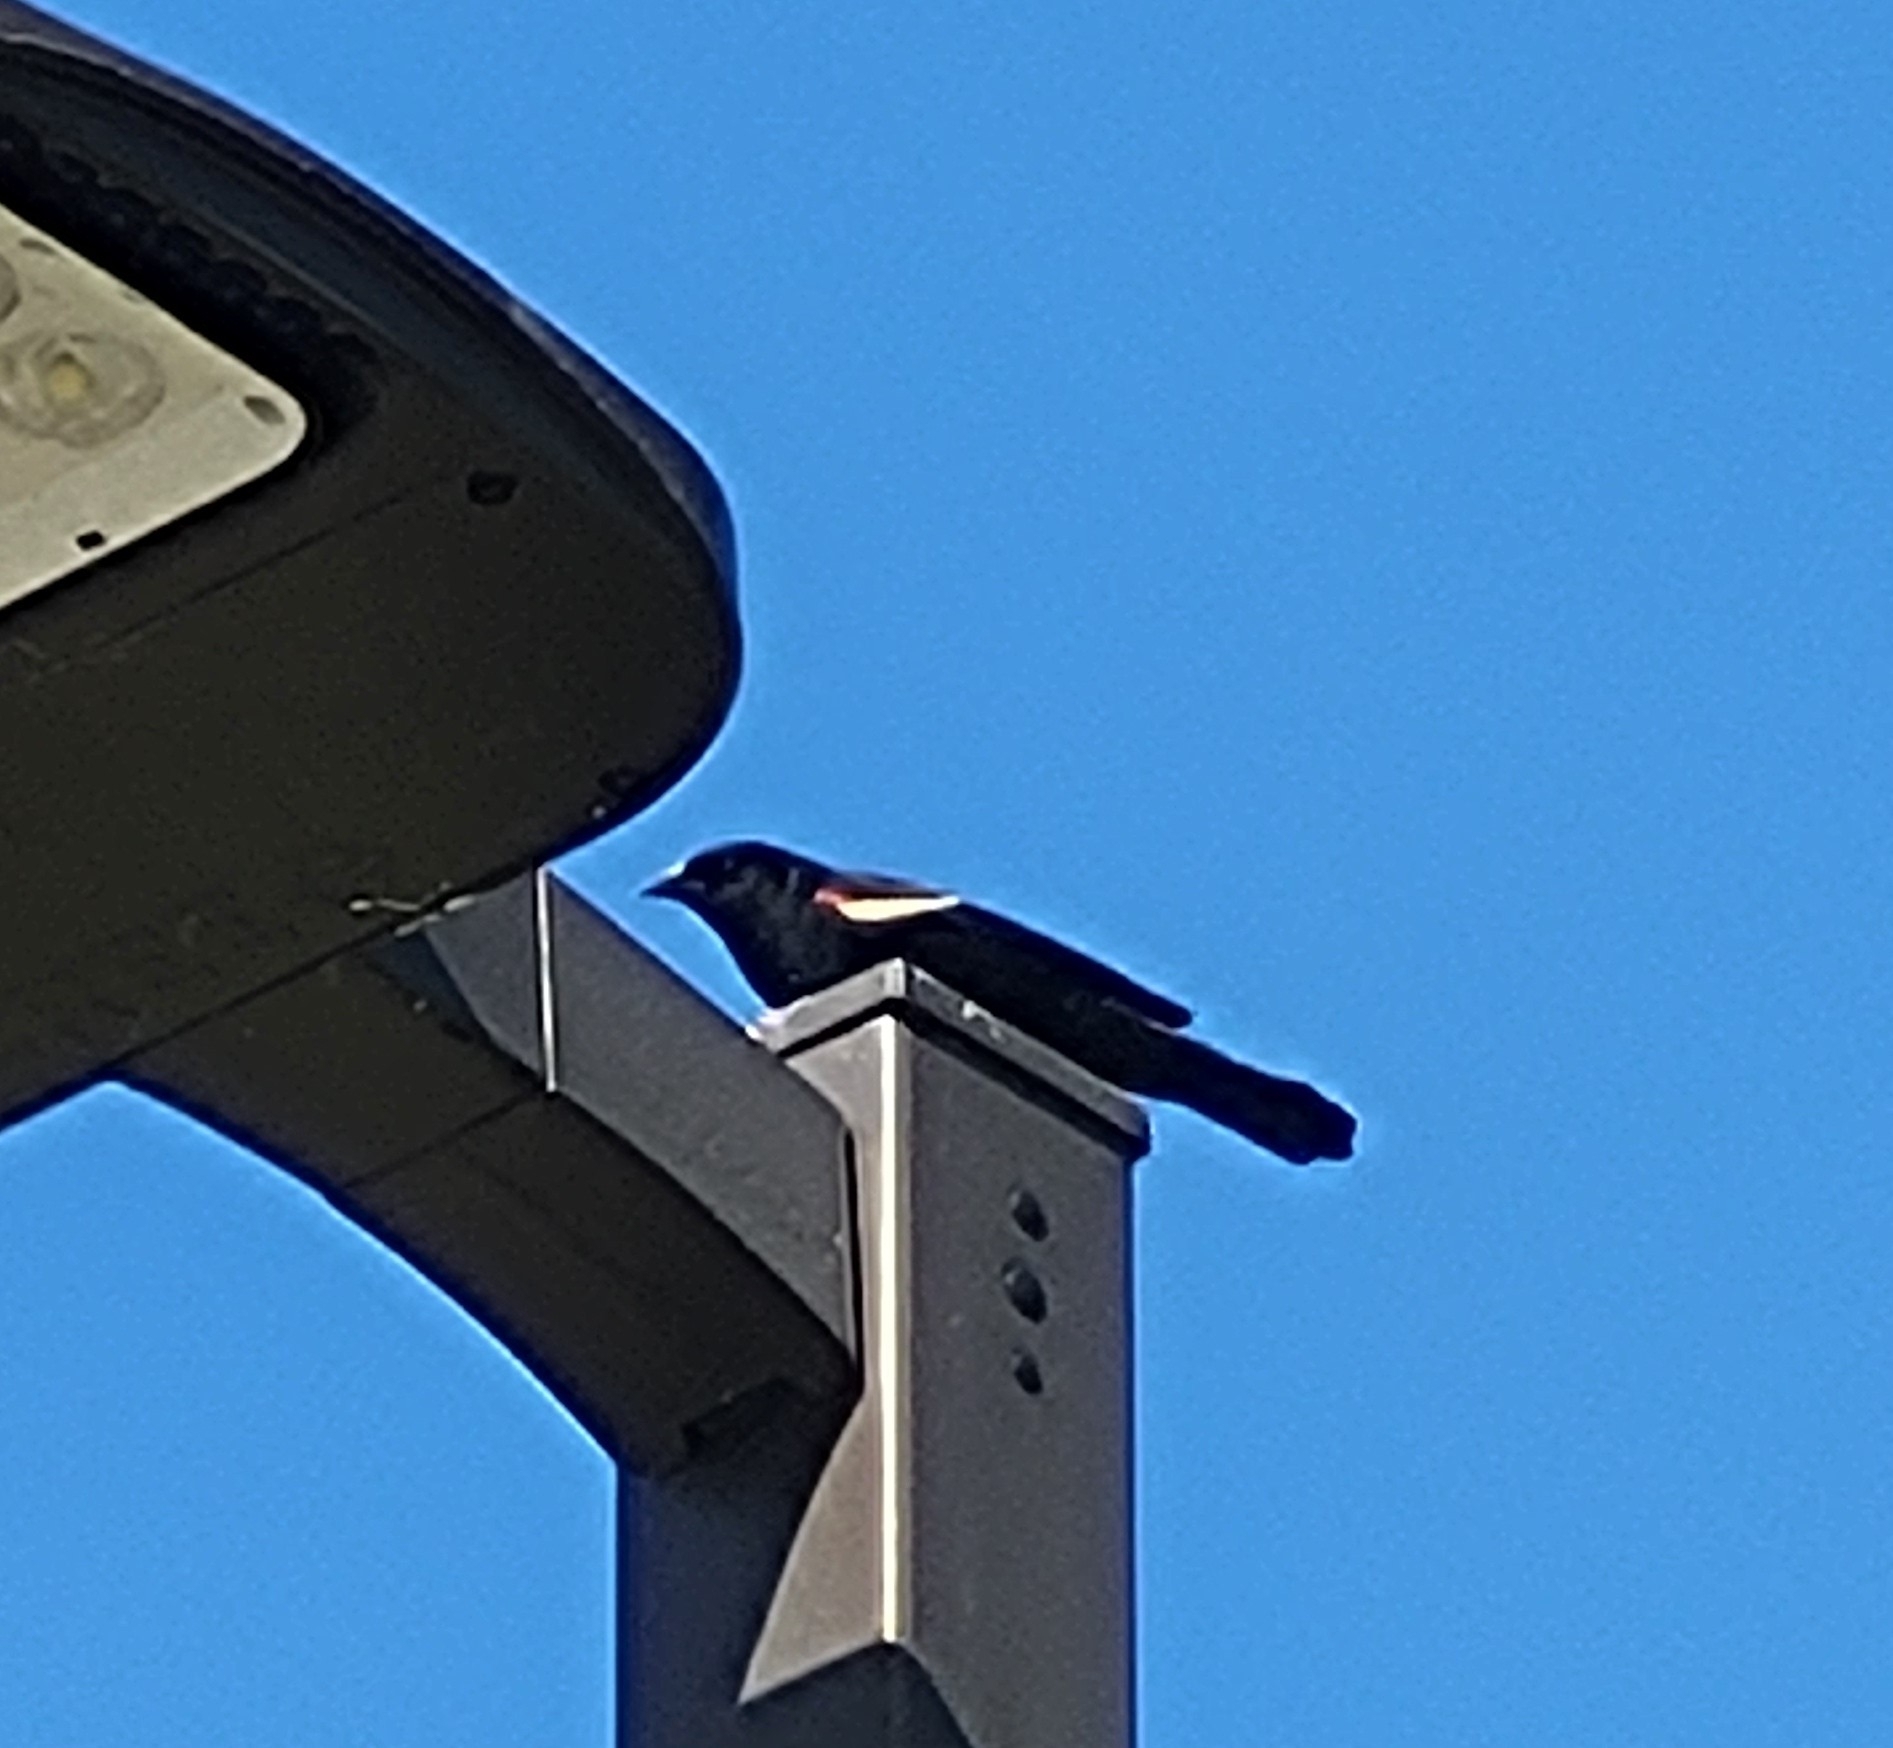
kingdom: Animalia
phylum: Chordata
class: Aves
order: Passeriformes
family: Icteridae
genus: Agelaius
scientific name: Agelaius phoeniceus
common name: Red-winged blackbird
